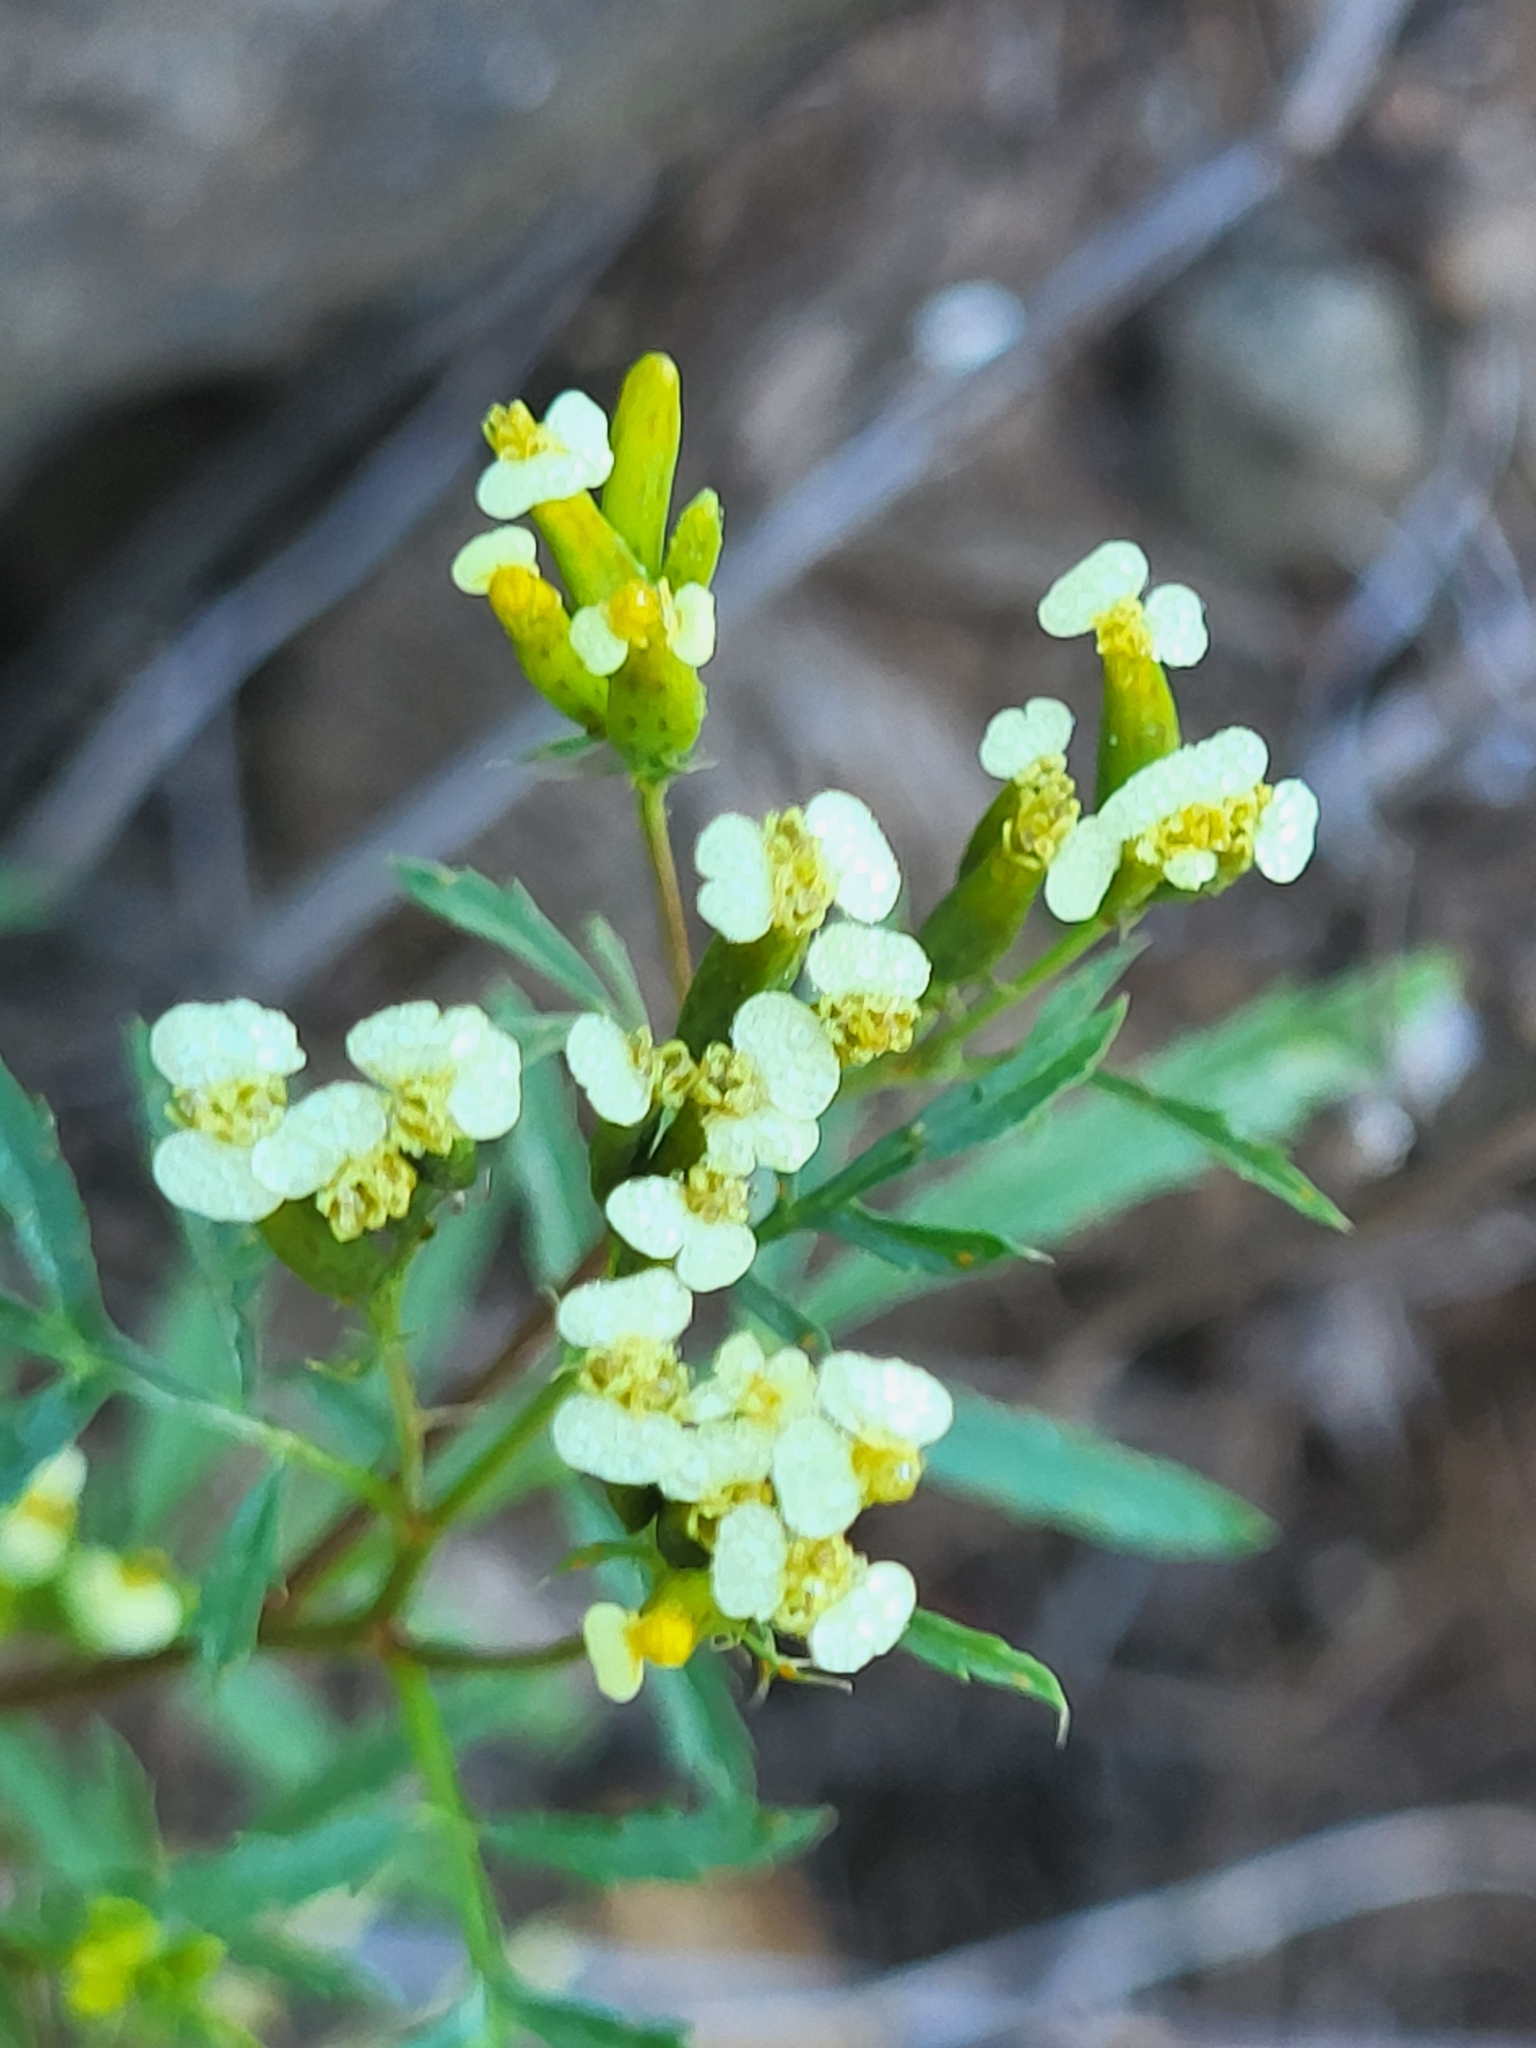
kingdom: Plantae
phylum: Tracheophyta
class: Magnoliopsida
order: Asterales
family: Asteraceae
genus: Tagetes
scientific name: Tagetes minuta
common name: Muster john henry
